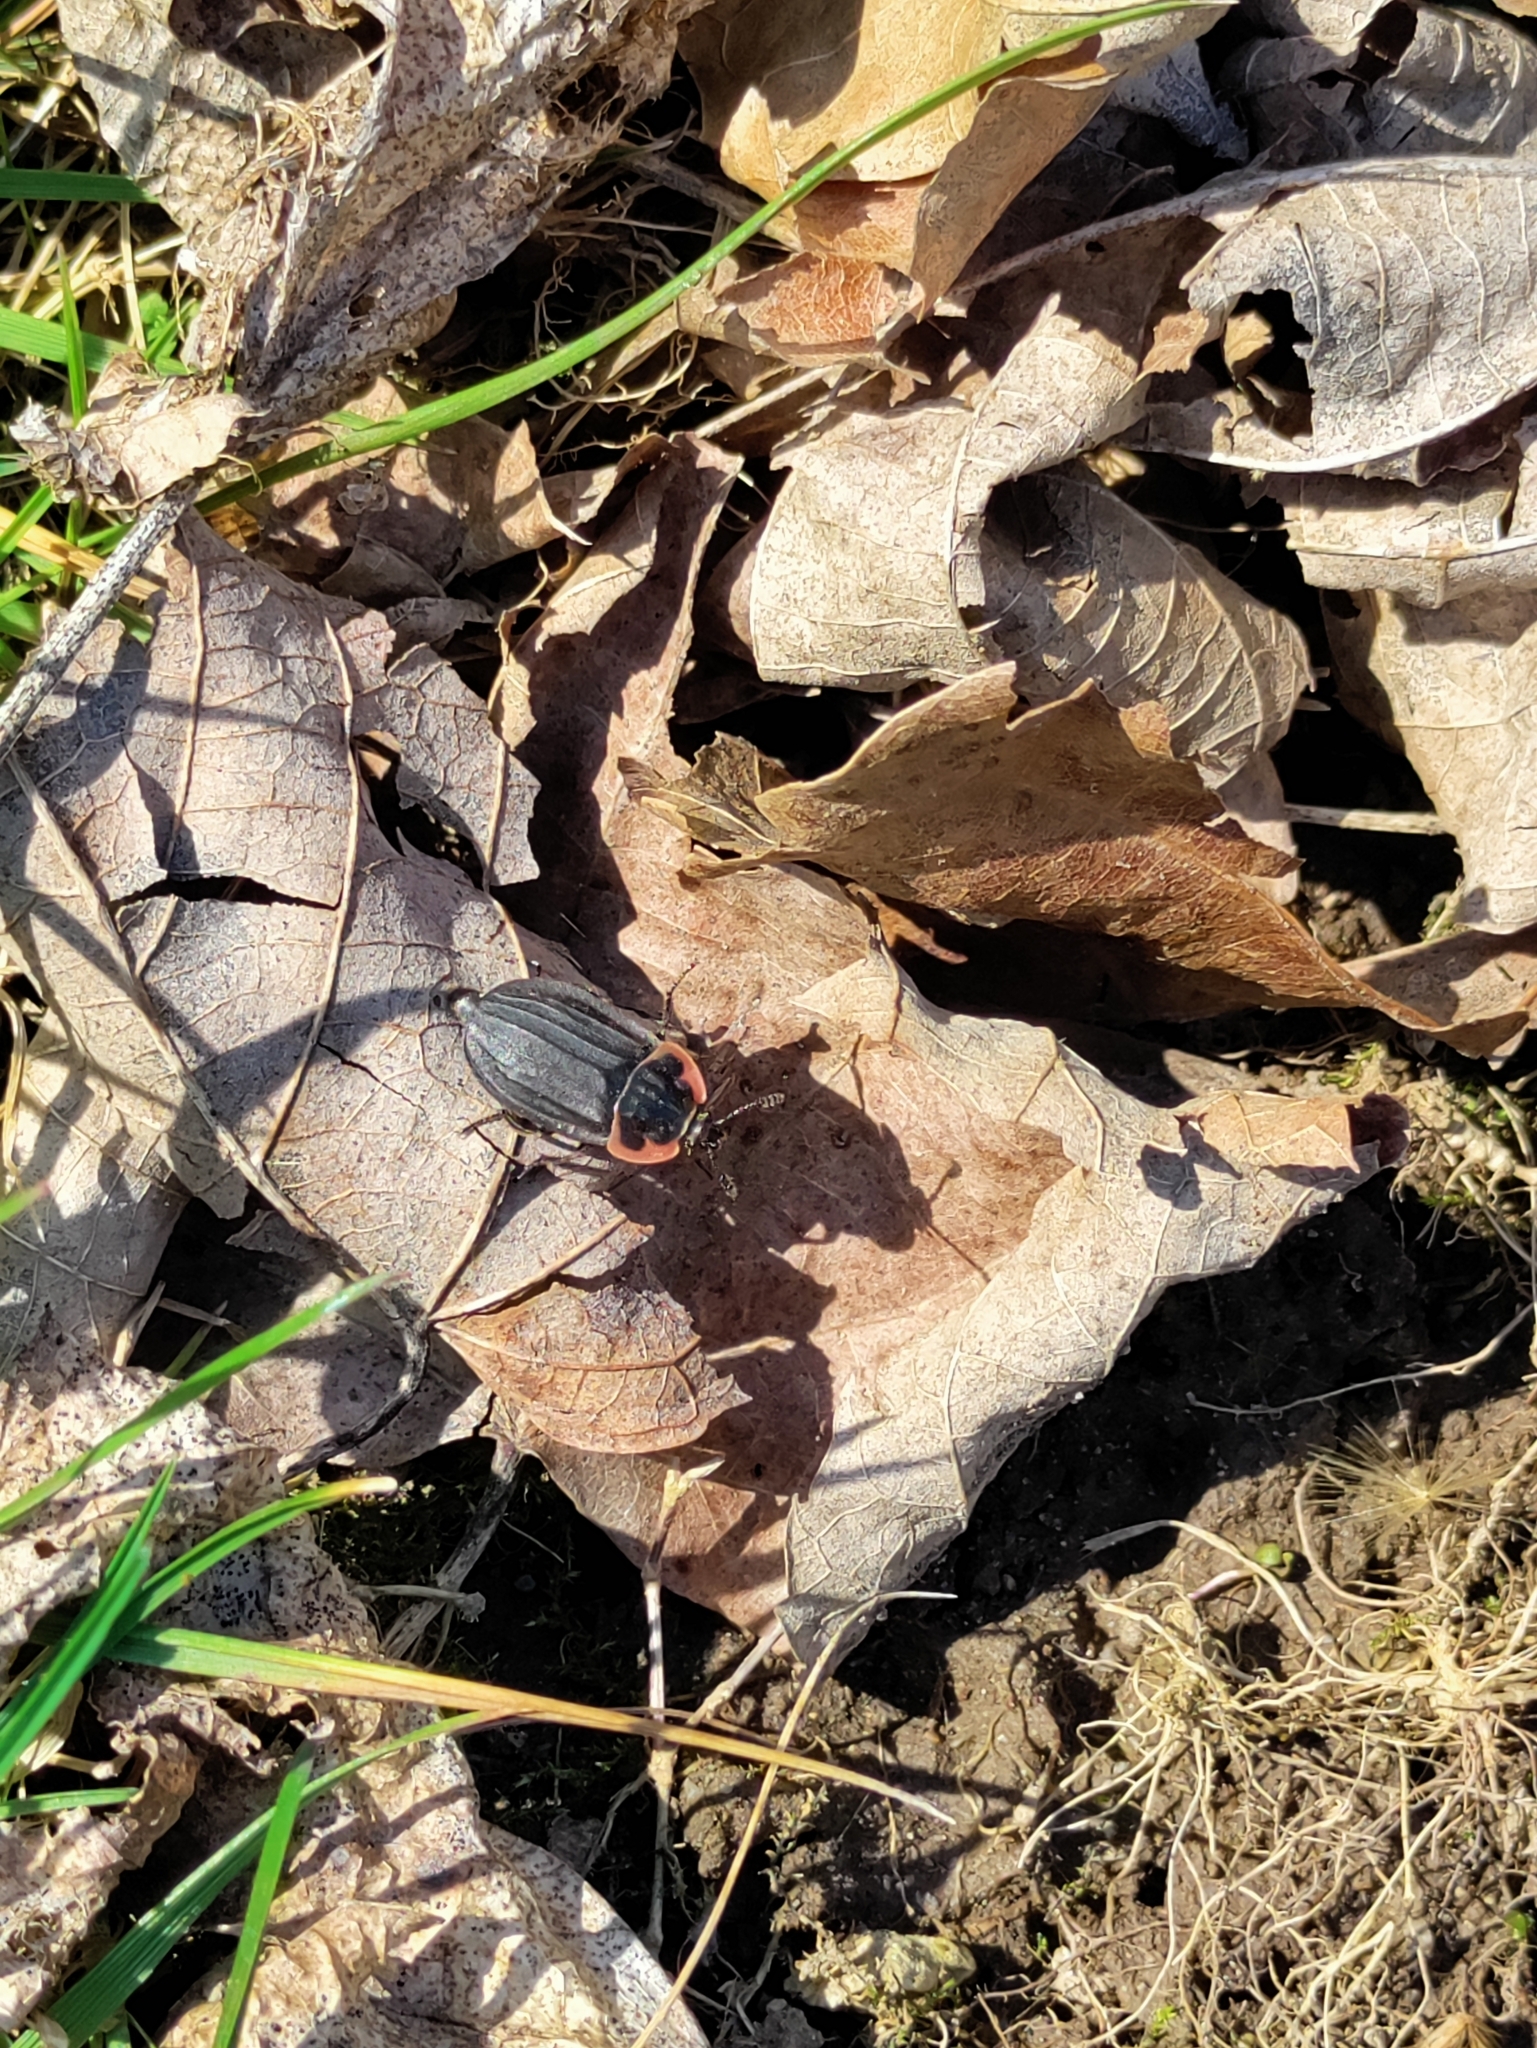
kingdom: Animalia
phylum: Arthropoda
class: Insecta
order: Coleoptera
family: Staphylinidae
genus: Oiceoptoma
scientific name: Oiceoptoma noveboracense
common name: Margined carrion beetle
